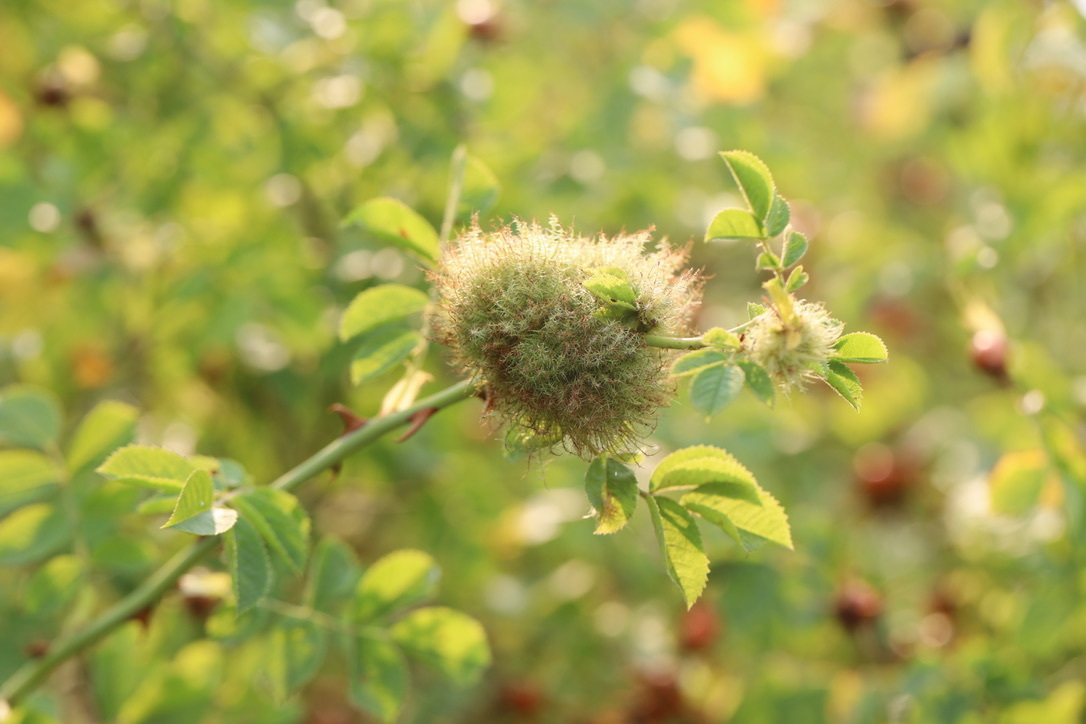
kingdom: Animalia
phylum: Arthropoda
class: Insecta
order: Hymenoptera
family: Cynipidae
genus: Diplolepis
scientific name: Diplolepis rosae
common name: Bedeguar gall
